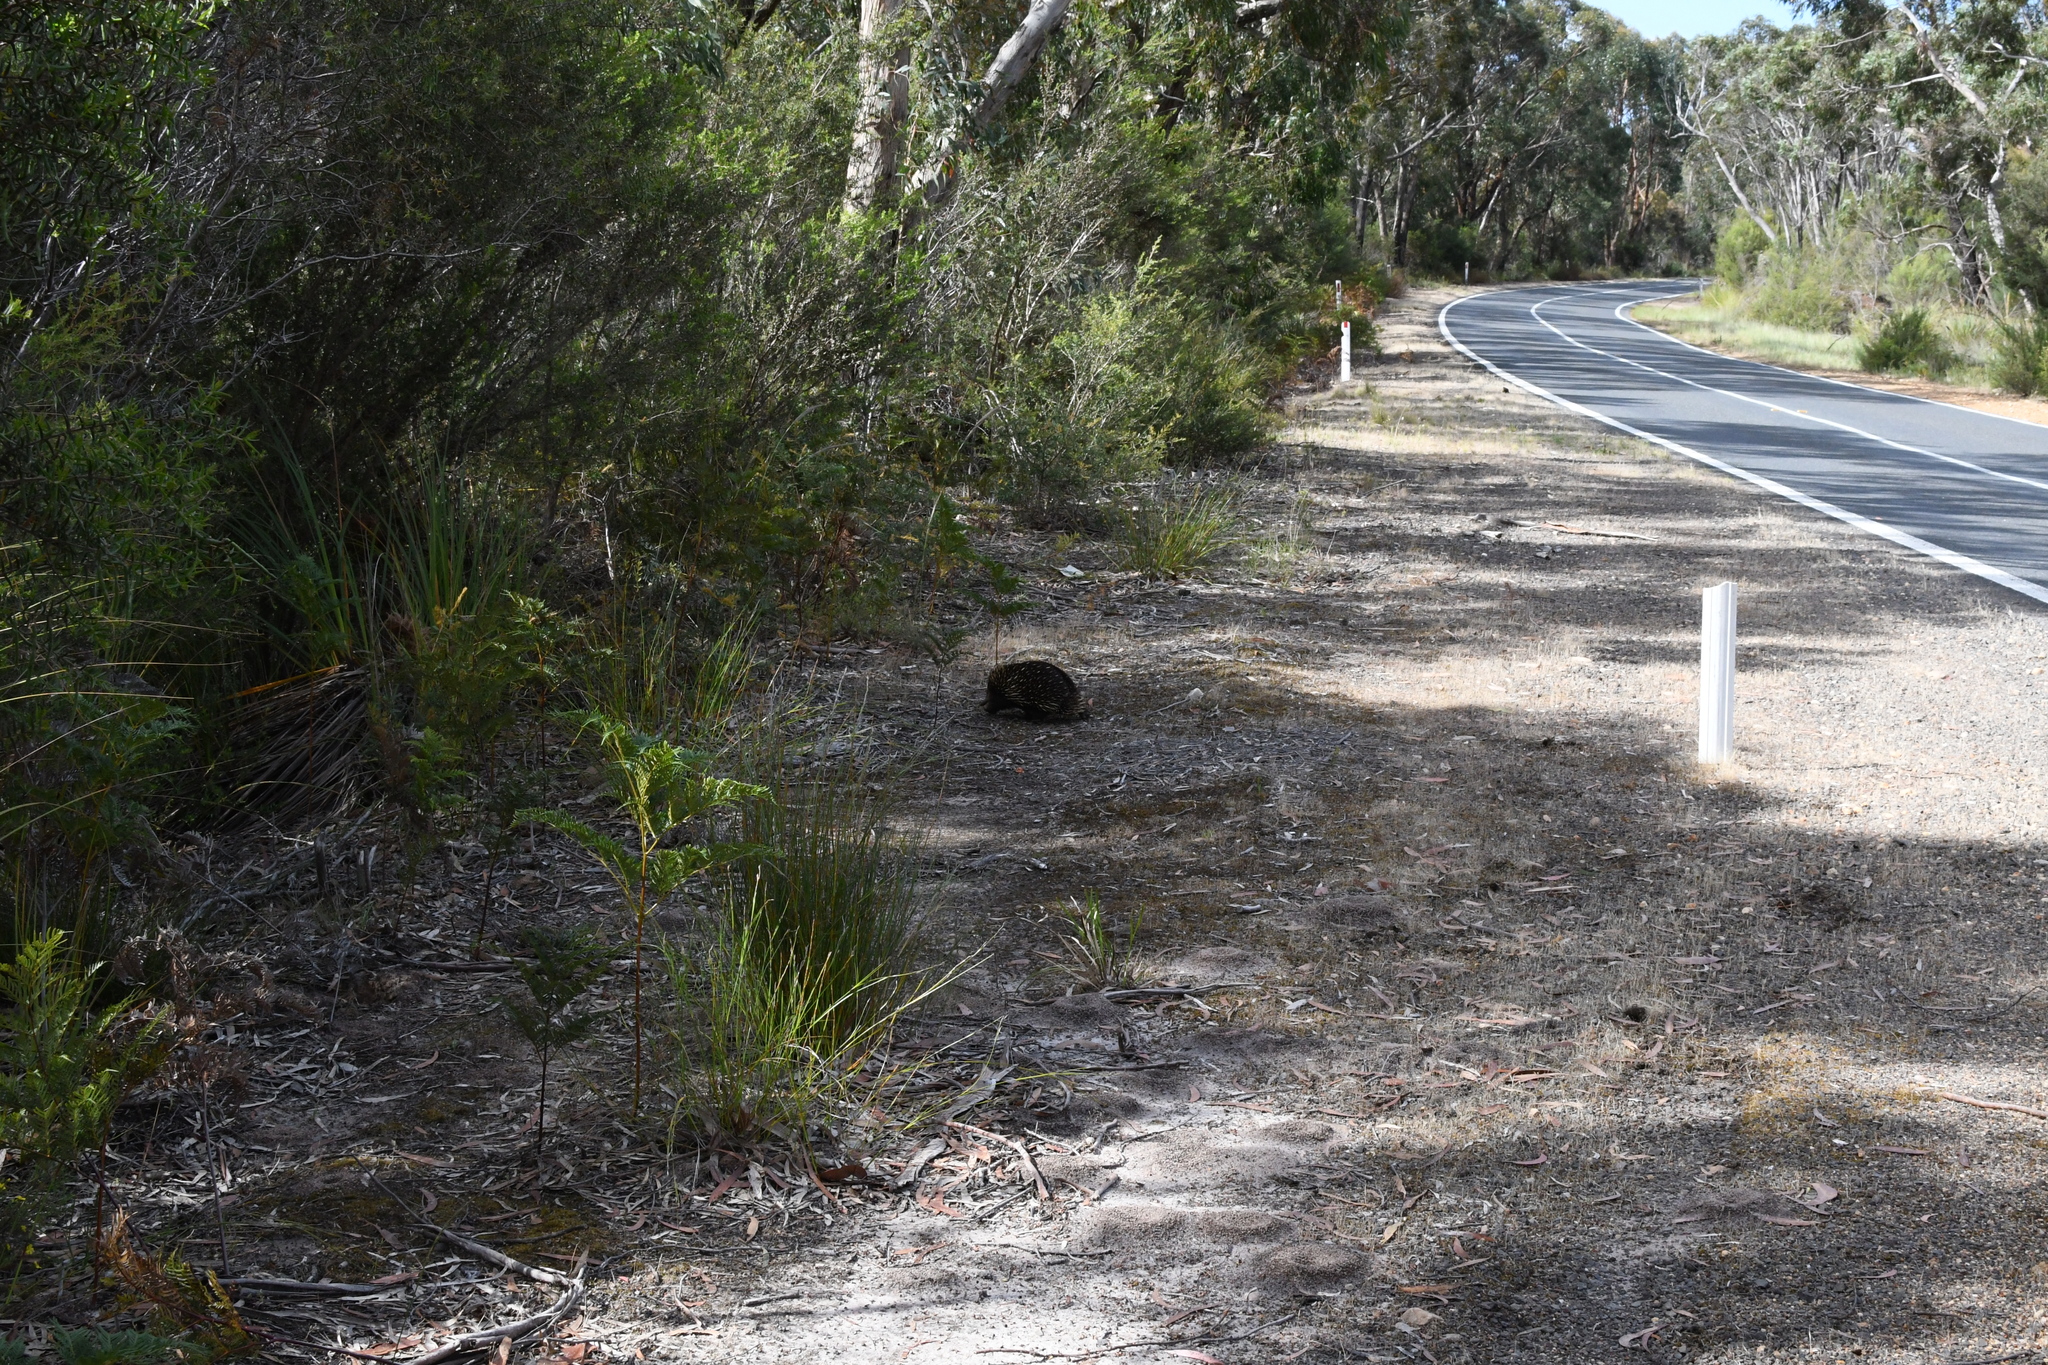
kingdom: Animalia
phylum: Chordata
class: Mammalia
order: Monotremata
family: Tachyglossidae
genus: Tachyglossus
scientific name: Tachyglossus aculeatus
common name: Short-beaked echidna
